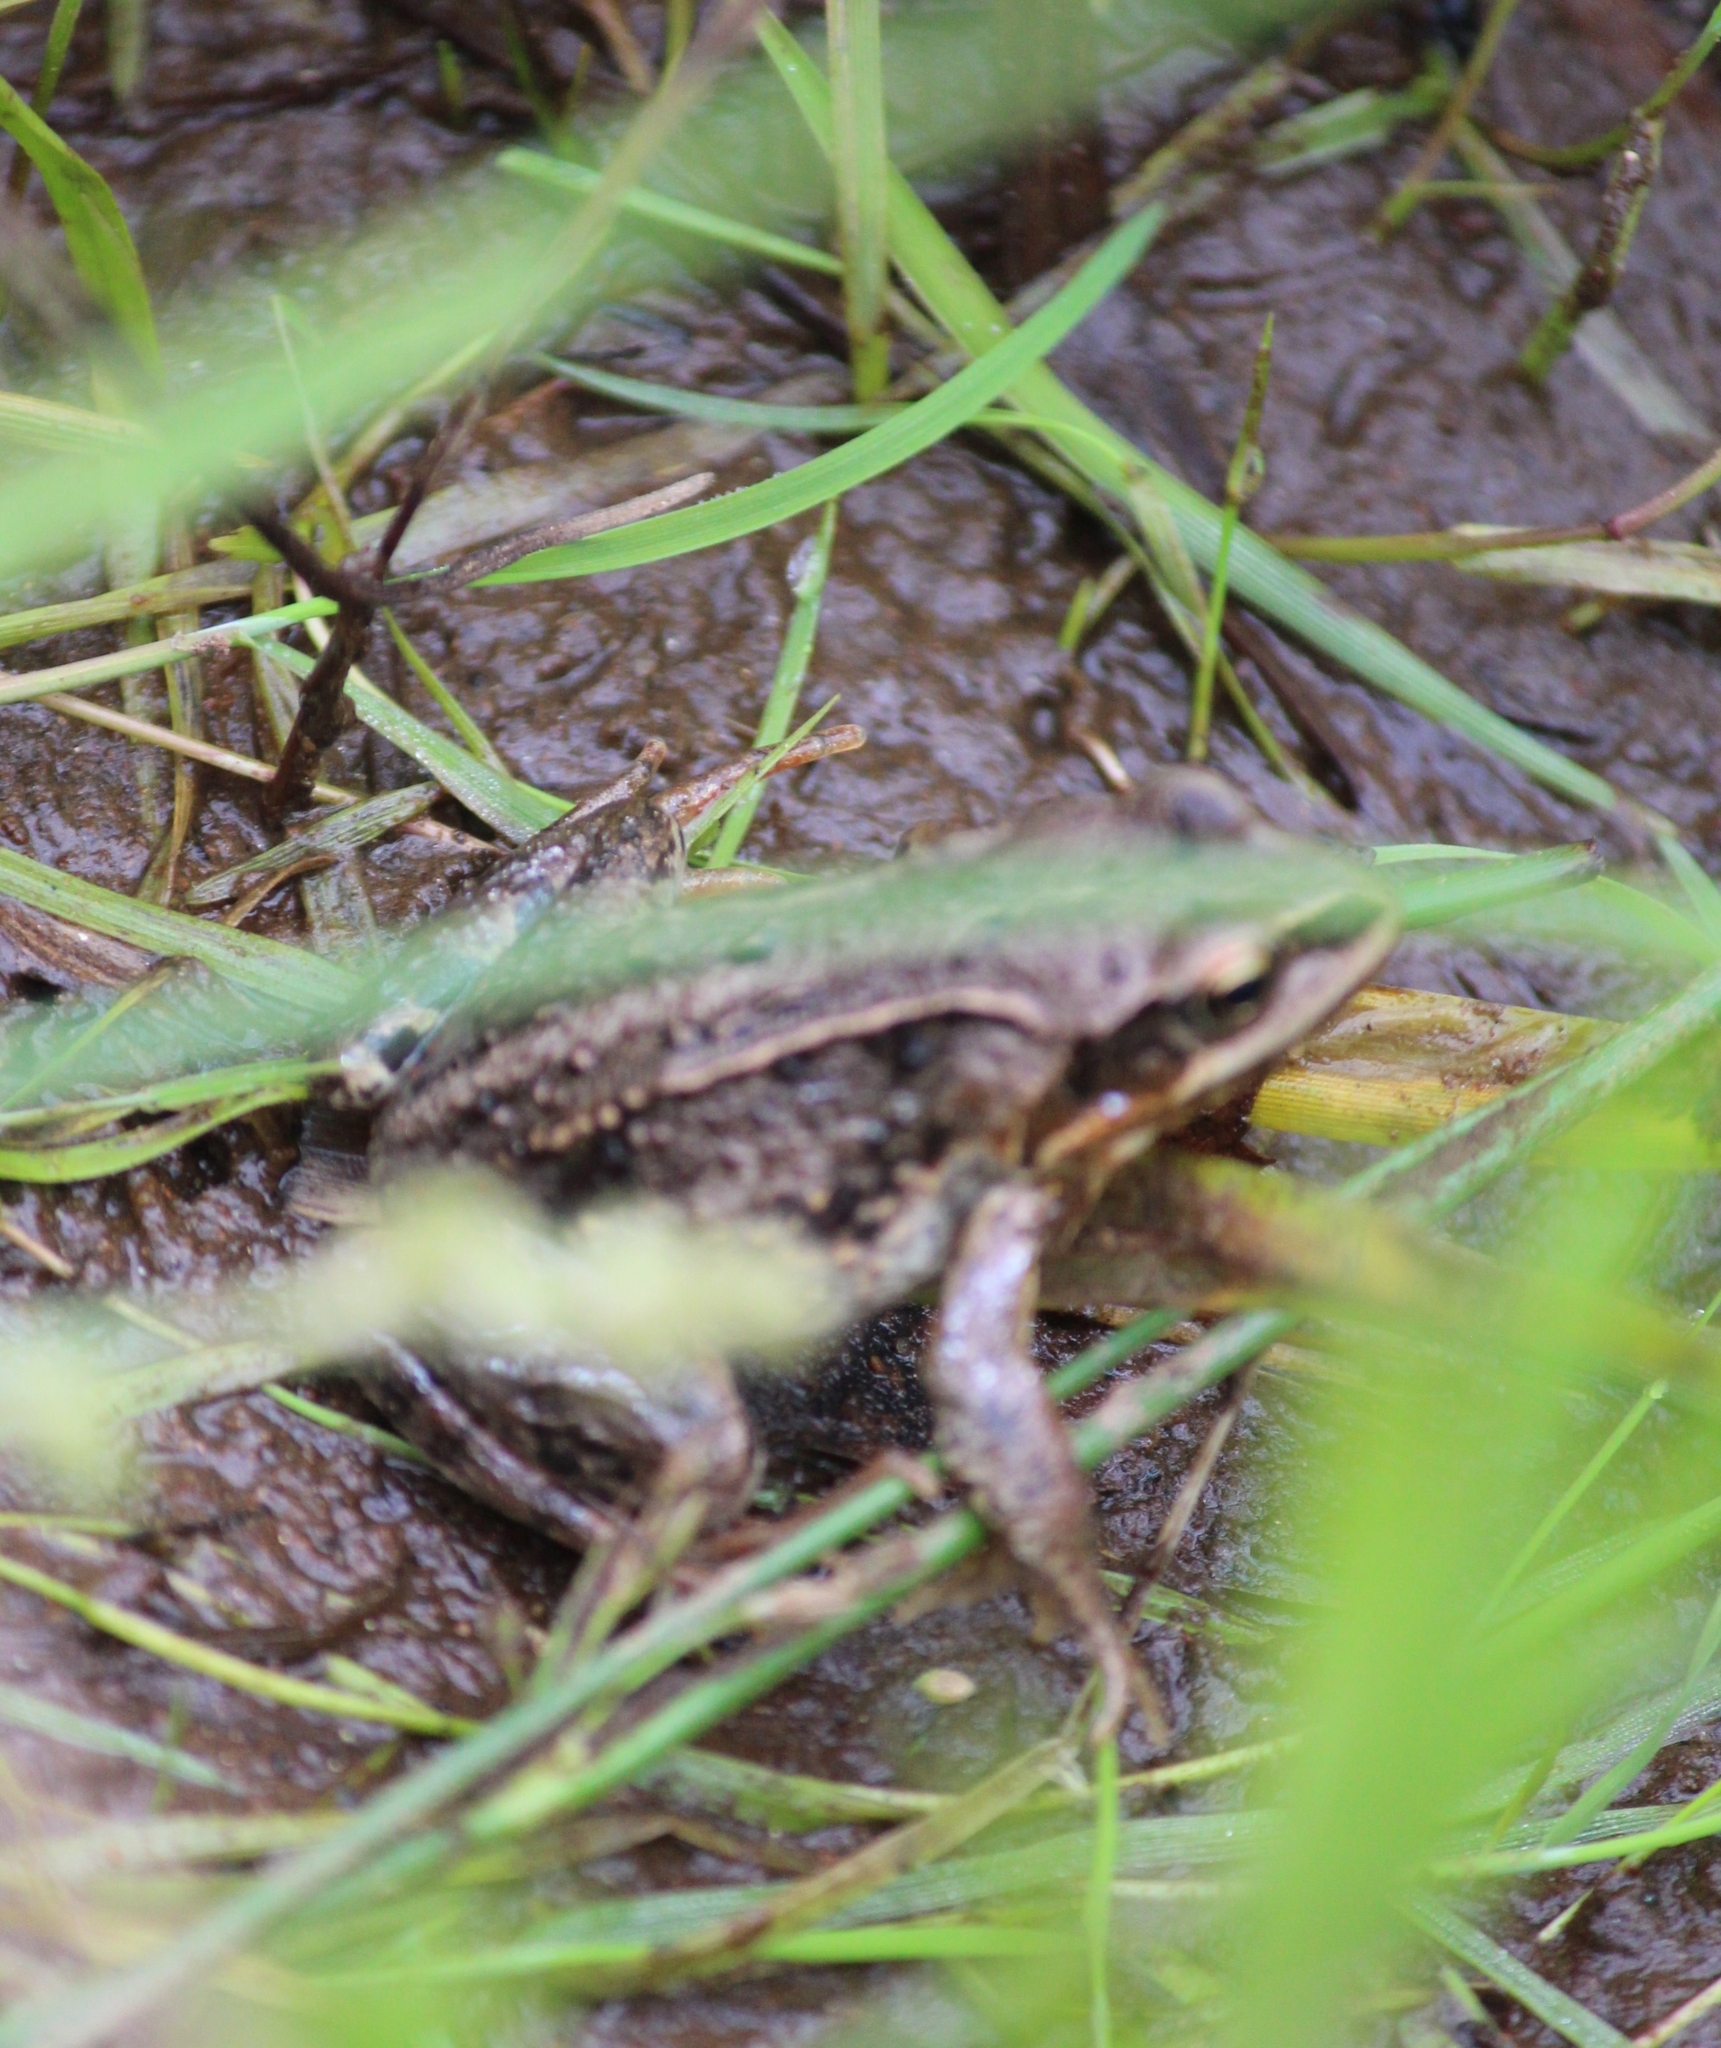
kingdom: Animalia
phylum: Chordata
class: Amphibia
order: Anura
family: Ranidae
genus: Rana
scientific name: Rana amurensis
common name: Amur brown frog
